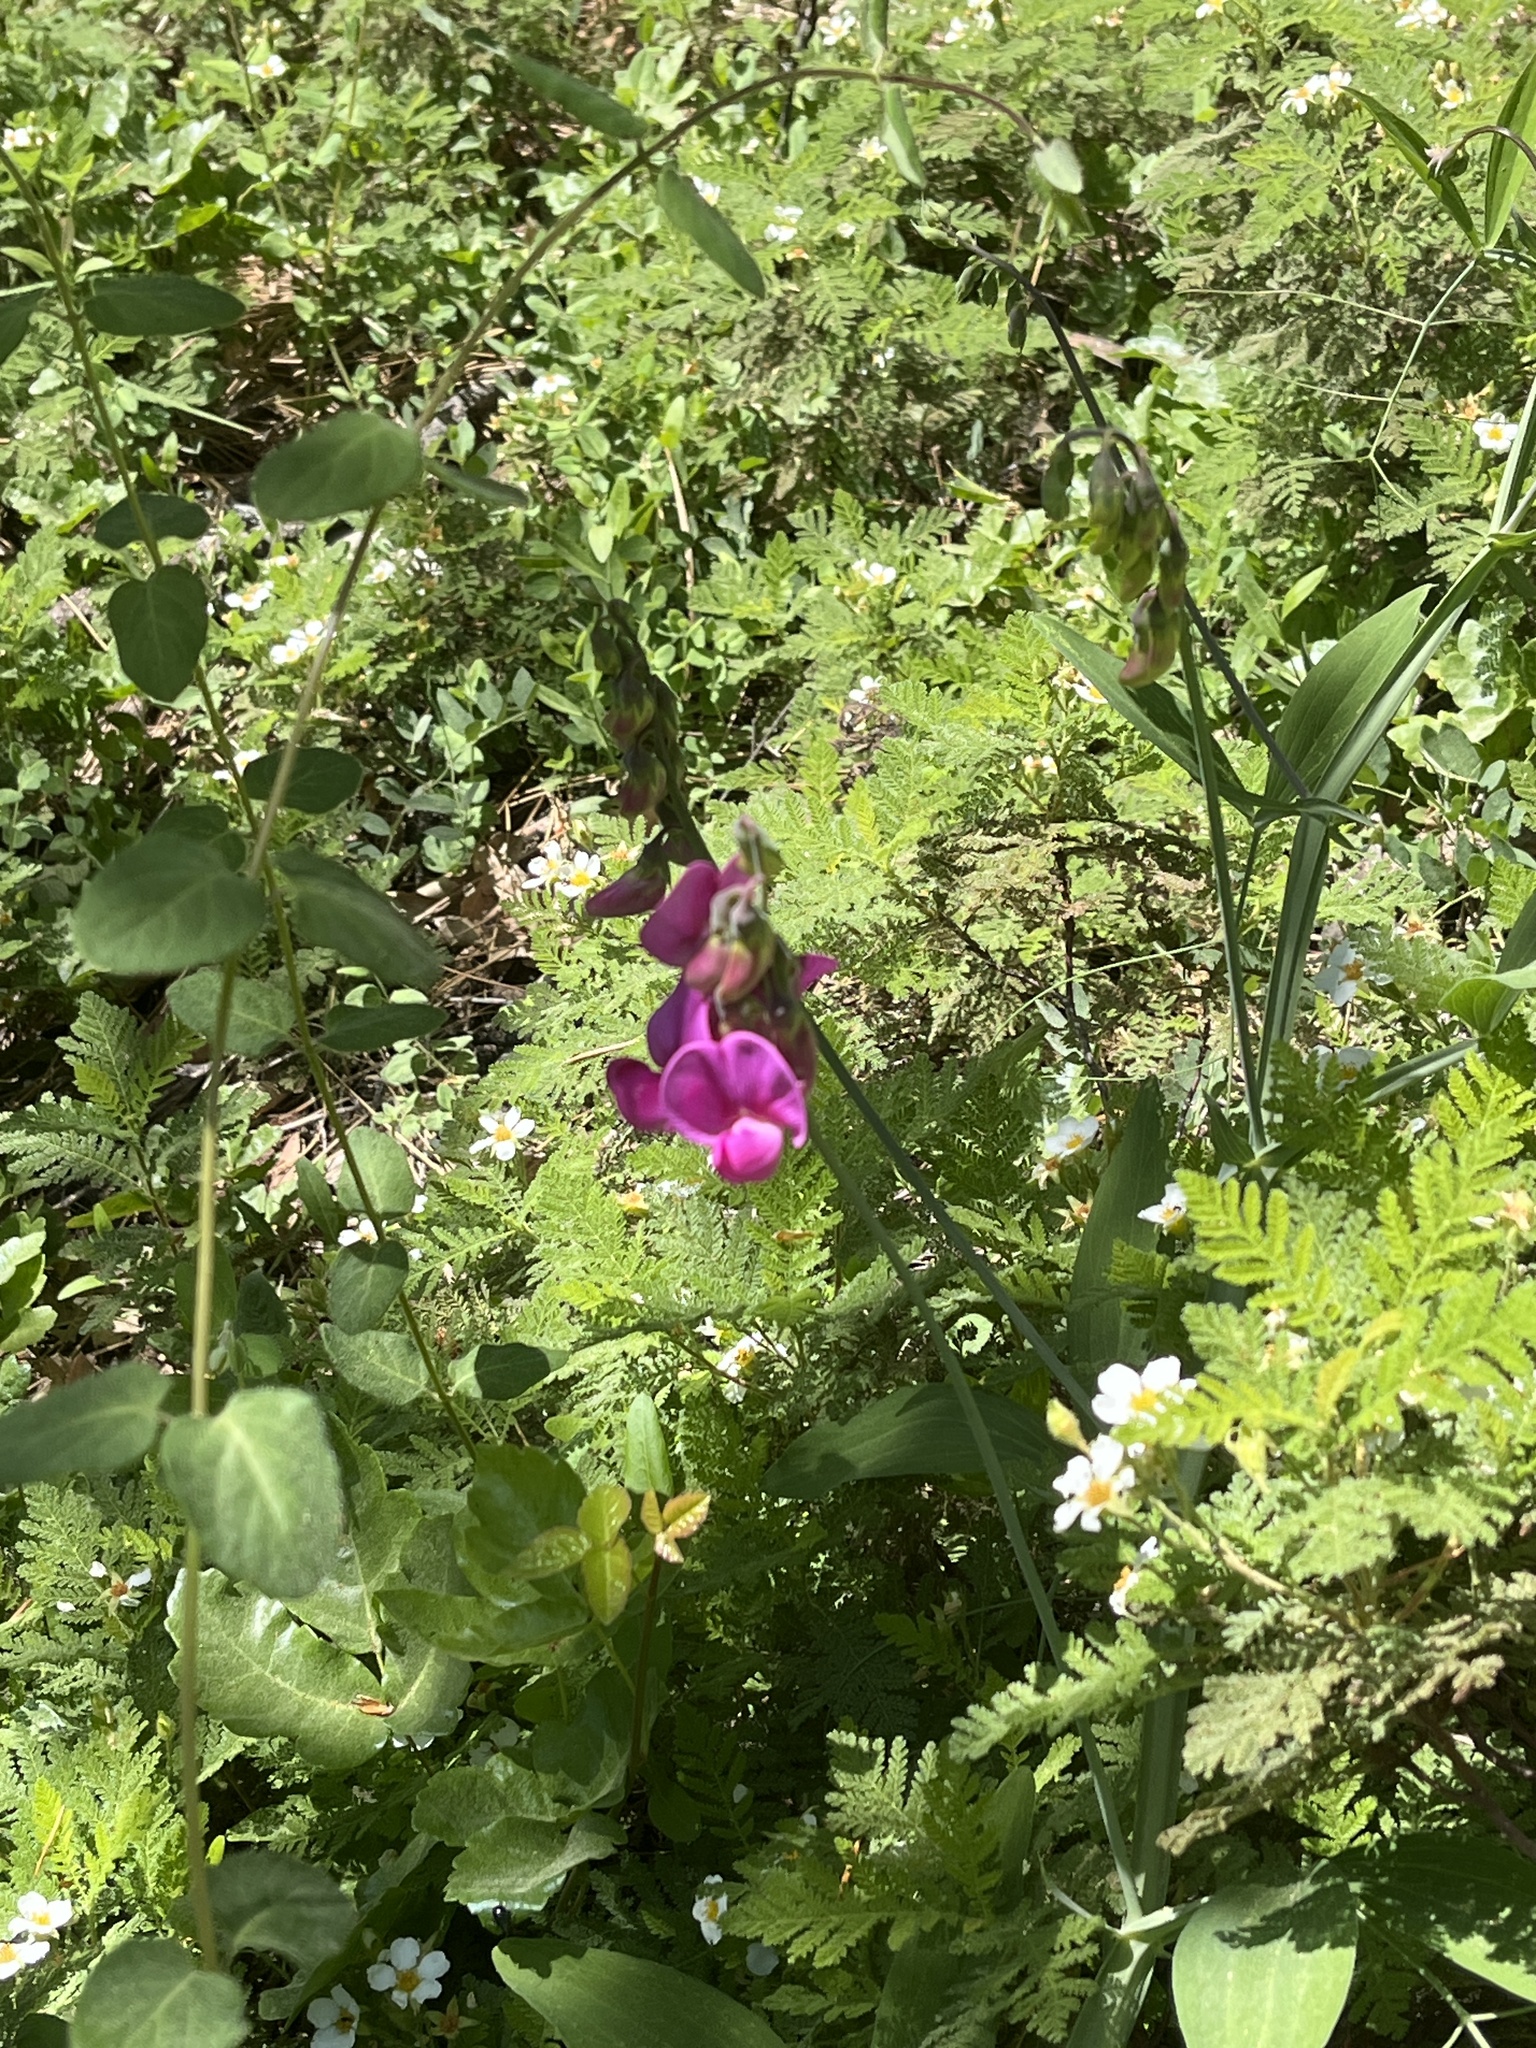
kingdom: Plantae
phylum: Tracheophyta
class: Magnoliopsida
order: Fabales
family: Fabaceae
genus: Lathyrus
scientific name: Lathyrus latifolius
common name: Perennial pea
